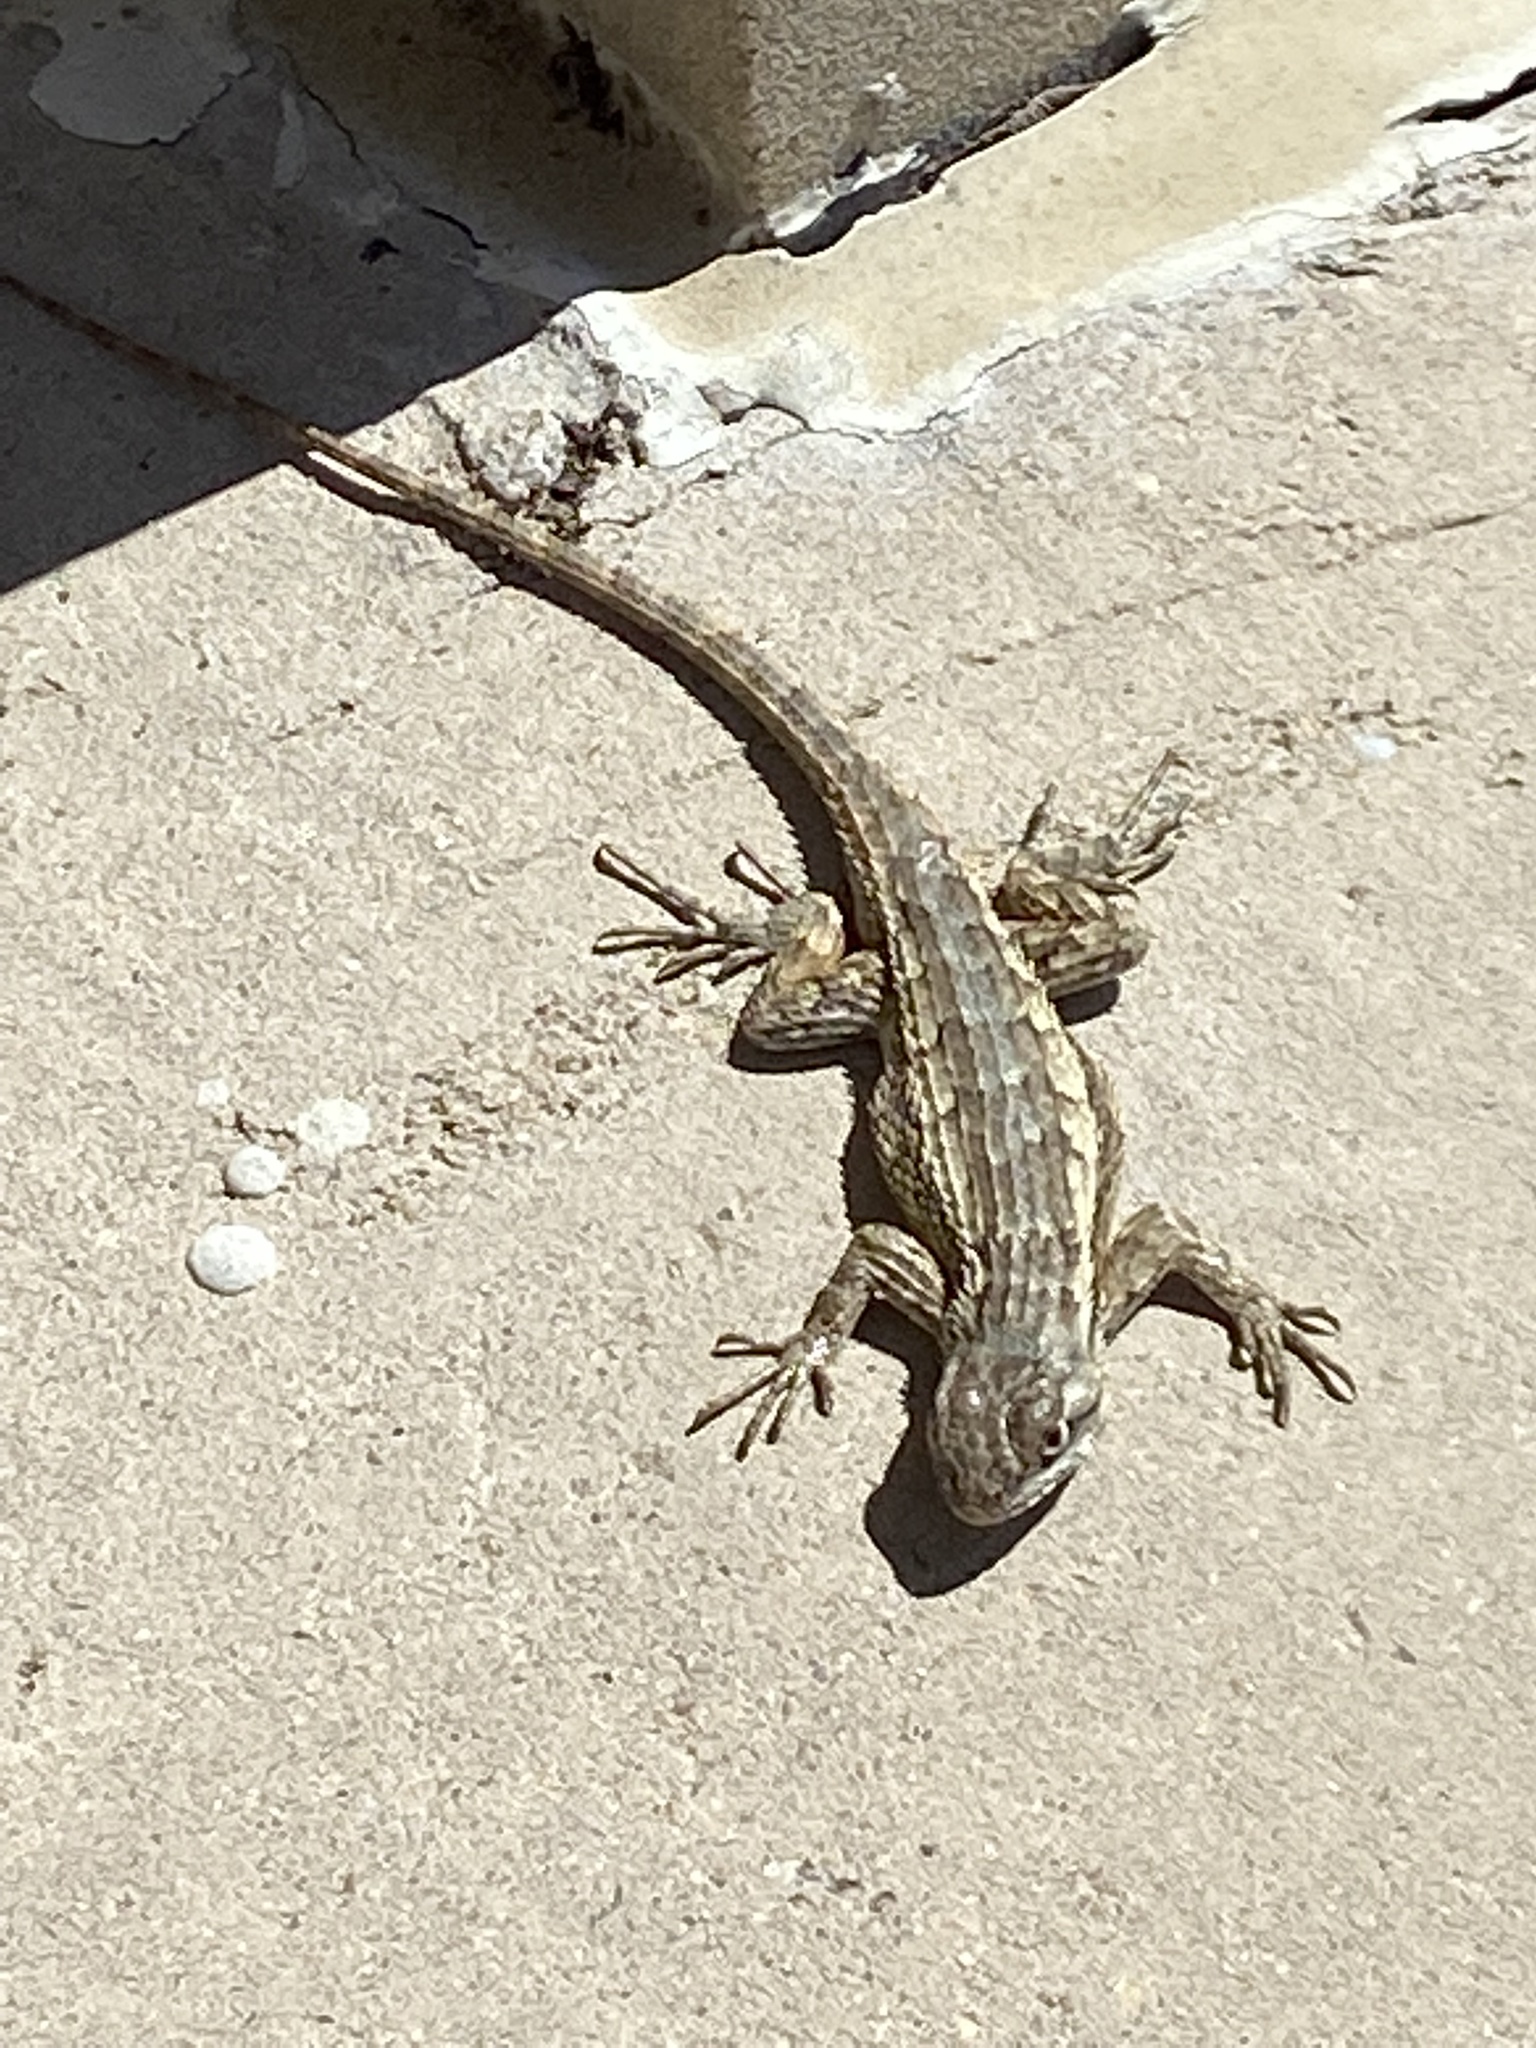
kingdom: Animalia
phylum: Chordata
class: Squamata
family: Phrynosomatidae
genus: Sceloporus
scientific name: Sceloporus olivaceus
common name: Texas spiny lizard
